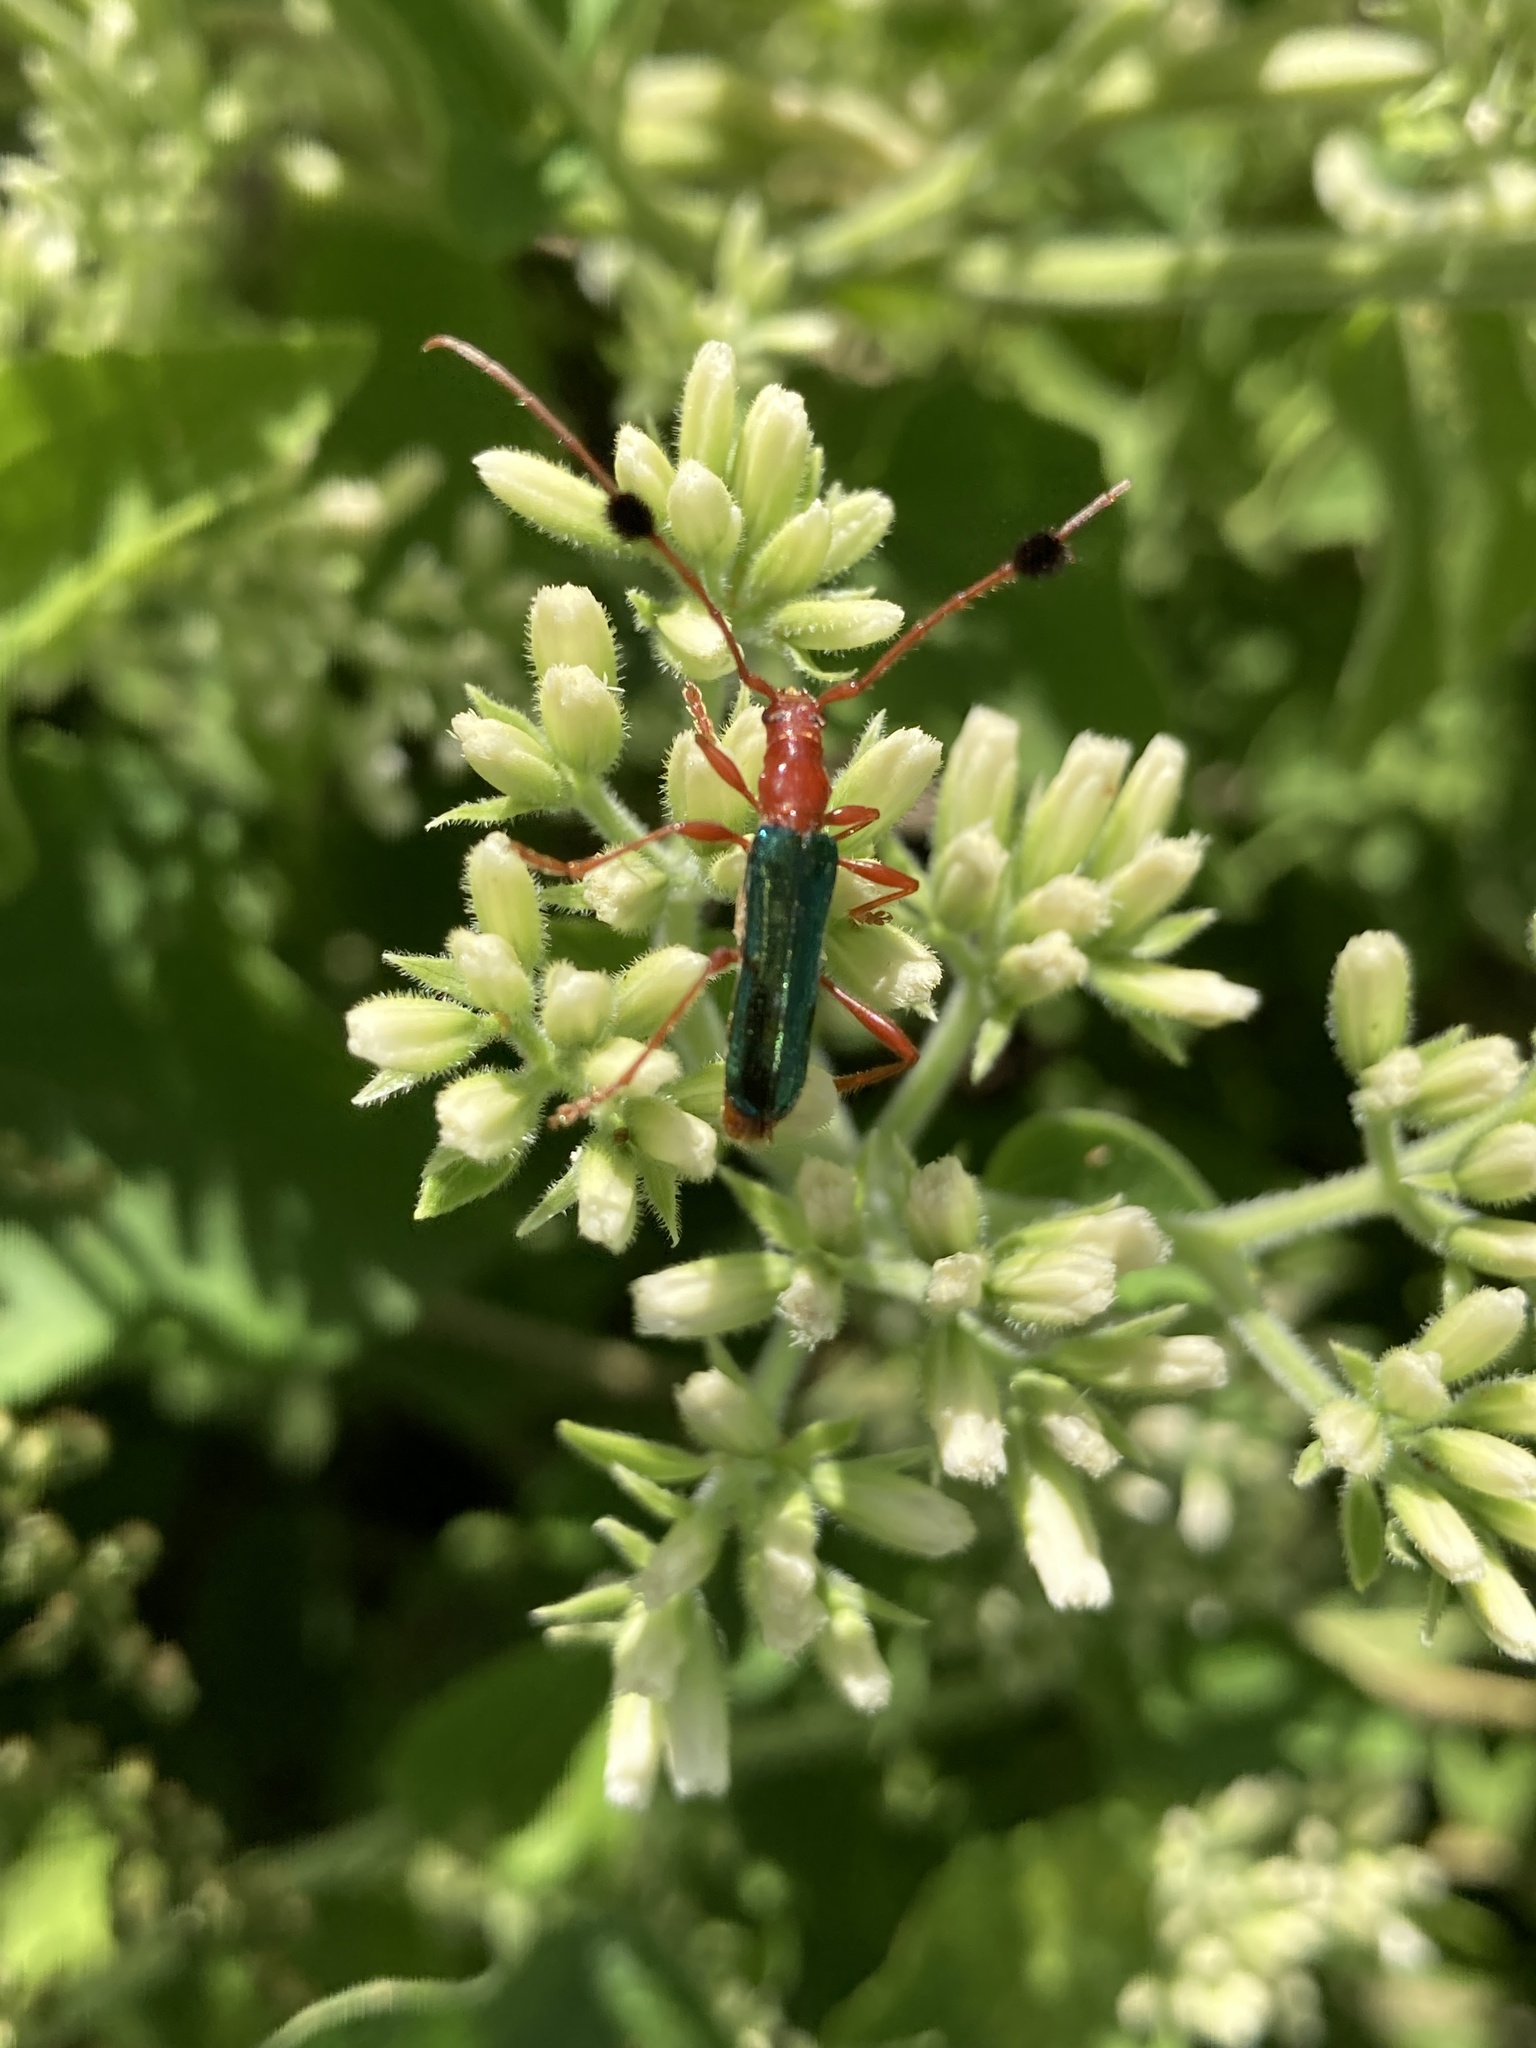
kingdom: Animalia
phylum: Arthropoda
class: Insecta
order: Coleoptera
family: Cerambycidae
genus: Paromoeocerus
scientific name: Paromoeocerus barbicornis
